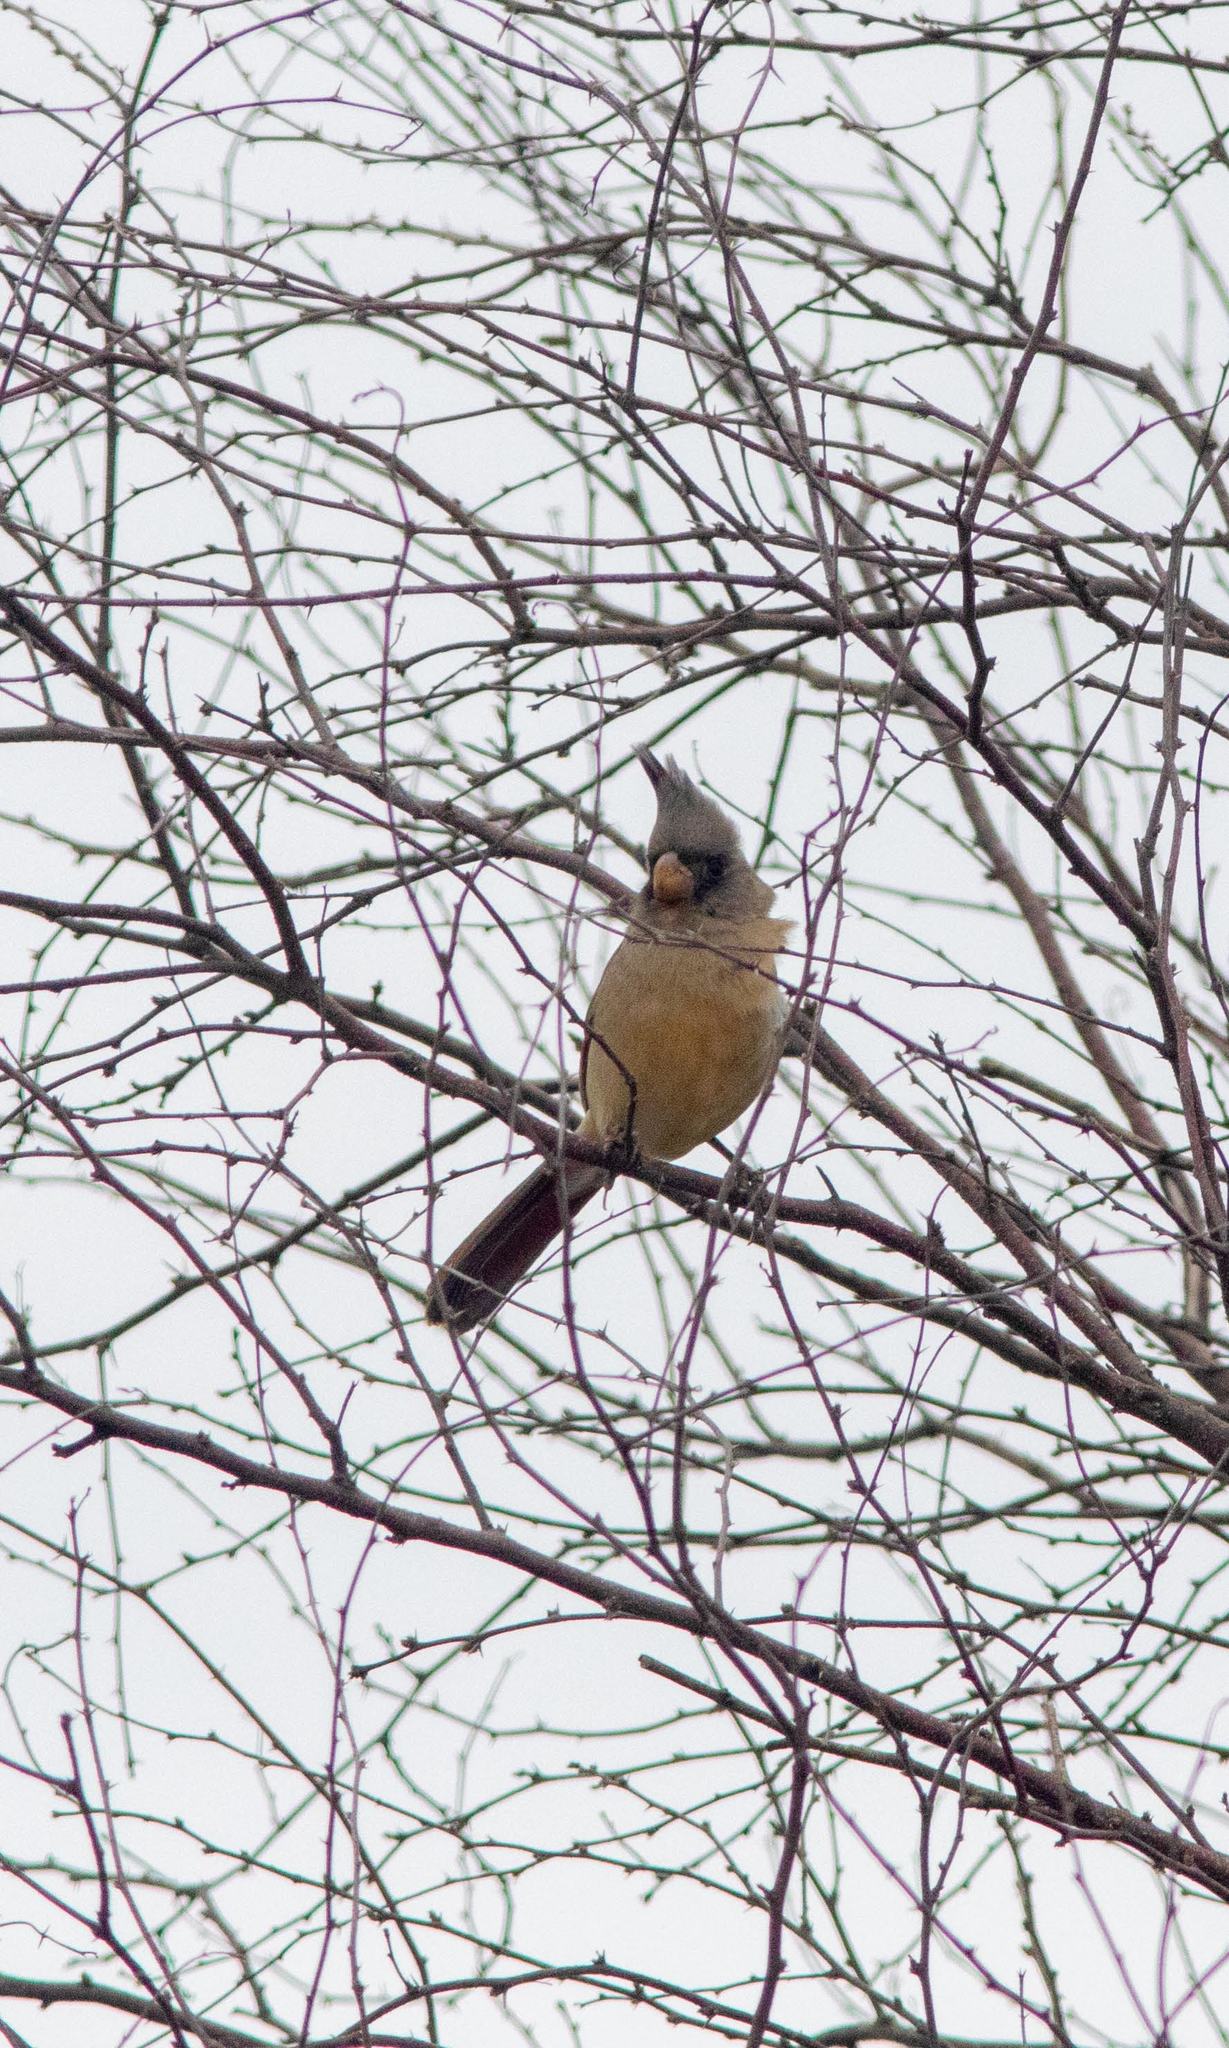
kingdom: Animalia
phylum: Chordata
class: Aves
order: Passeriformes
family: Cardinalidae
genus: Cardinalis
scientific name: Cardinalis sinuatus
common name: Pyrrhuloxia
